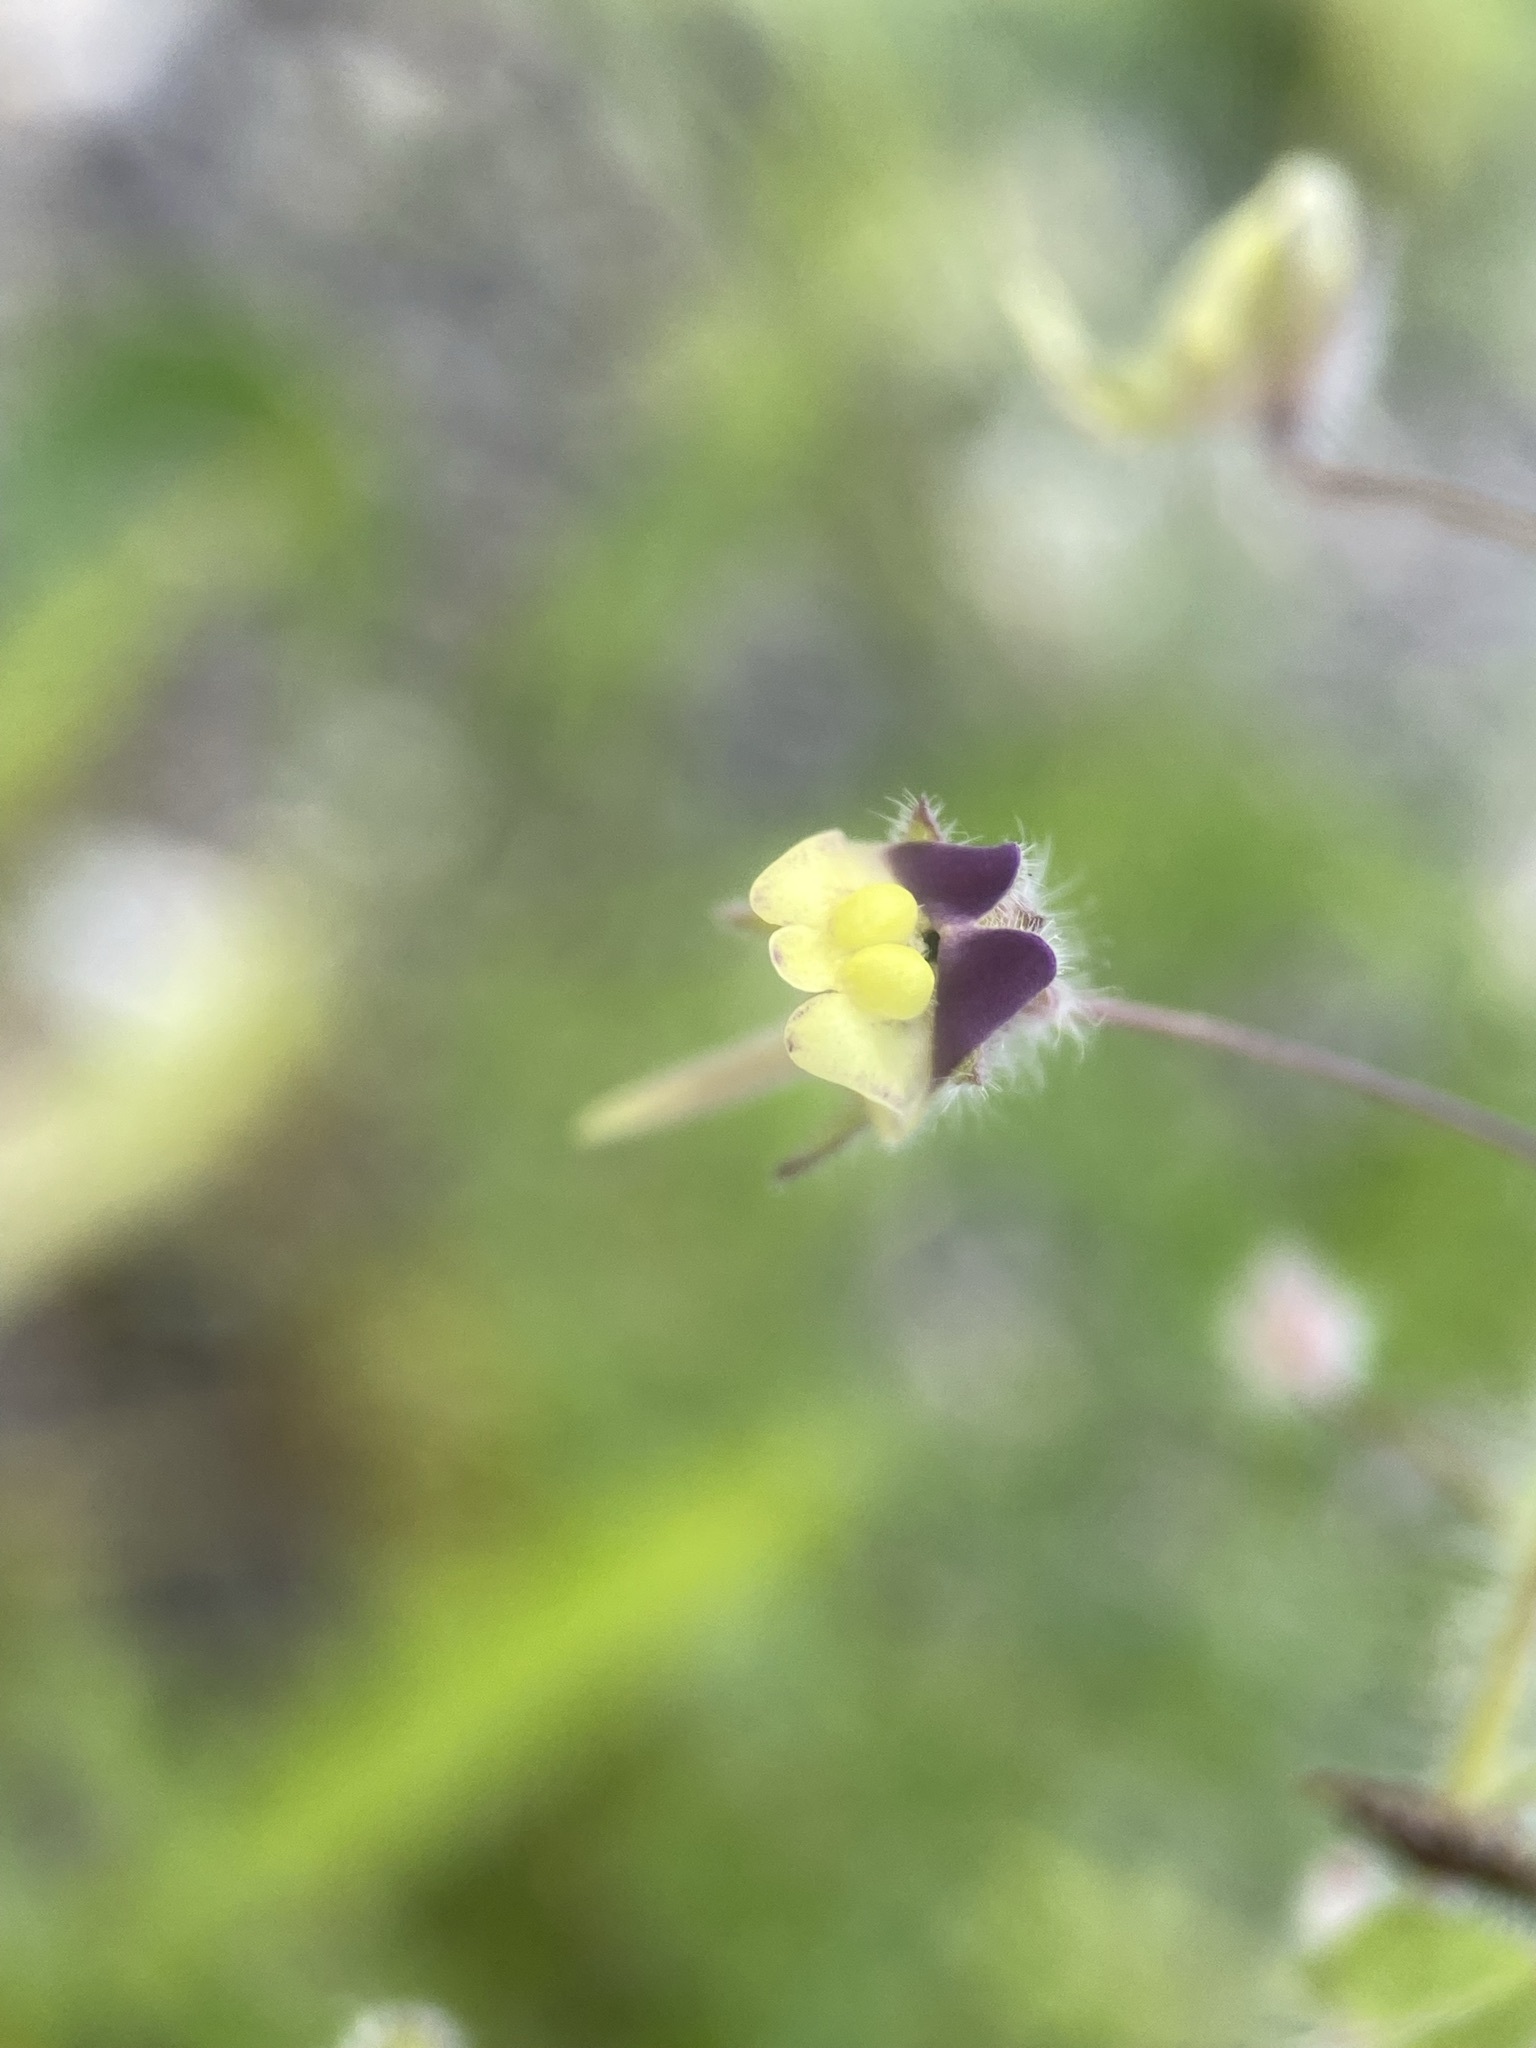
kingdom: Plantae
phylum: Tracheophyta
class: Magnoliopsida
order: Lamiales
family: Plantaginaceae
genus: Kickxia
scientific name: Kickxia elatine
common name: Sharp-leaved fluellen
